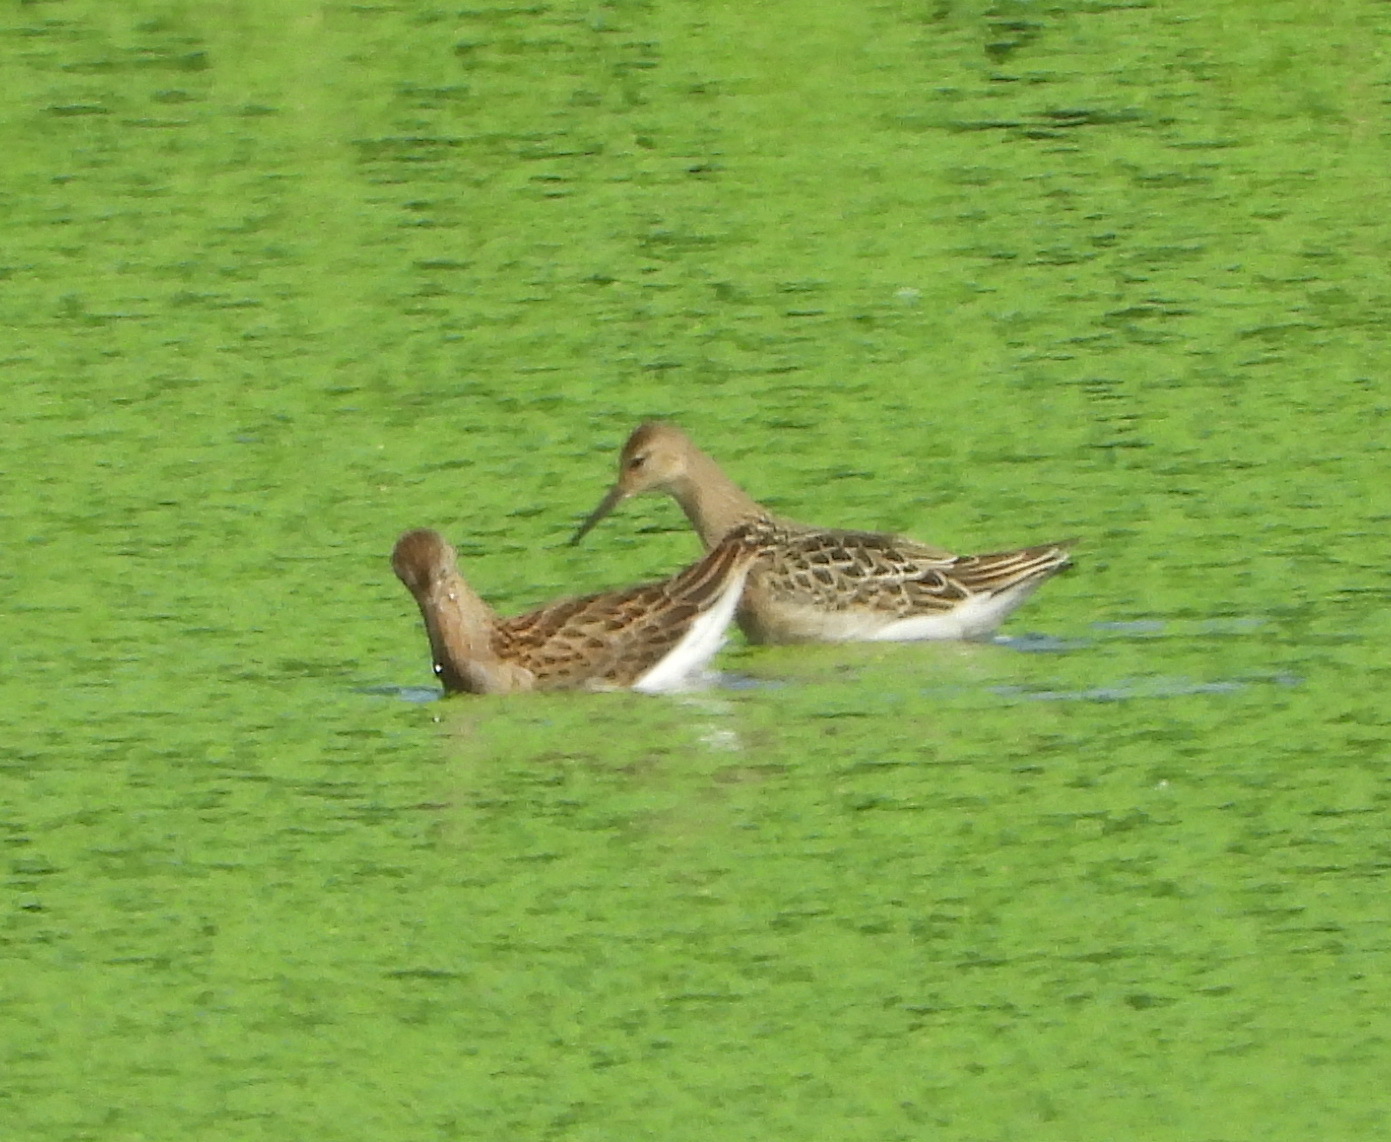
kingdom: Animalia
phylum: Chordata
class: Aves
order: Charadriiformes
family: Scolopacidae
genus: Calidris
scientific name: Calidris pugnax
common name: Ruff
